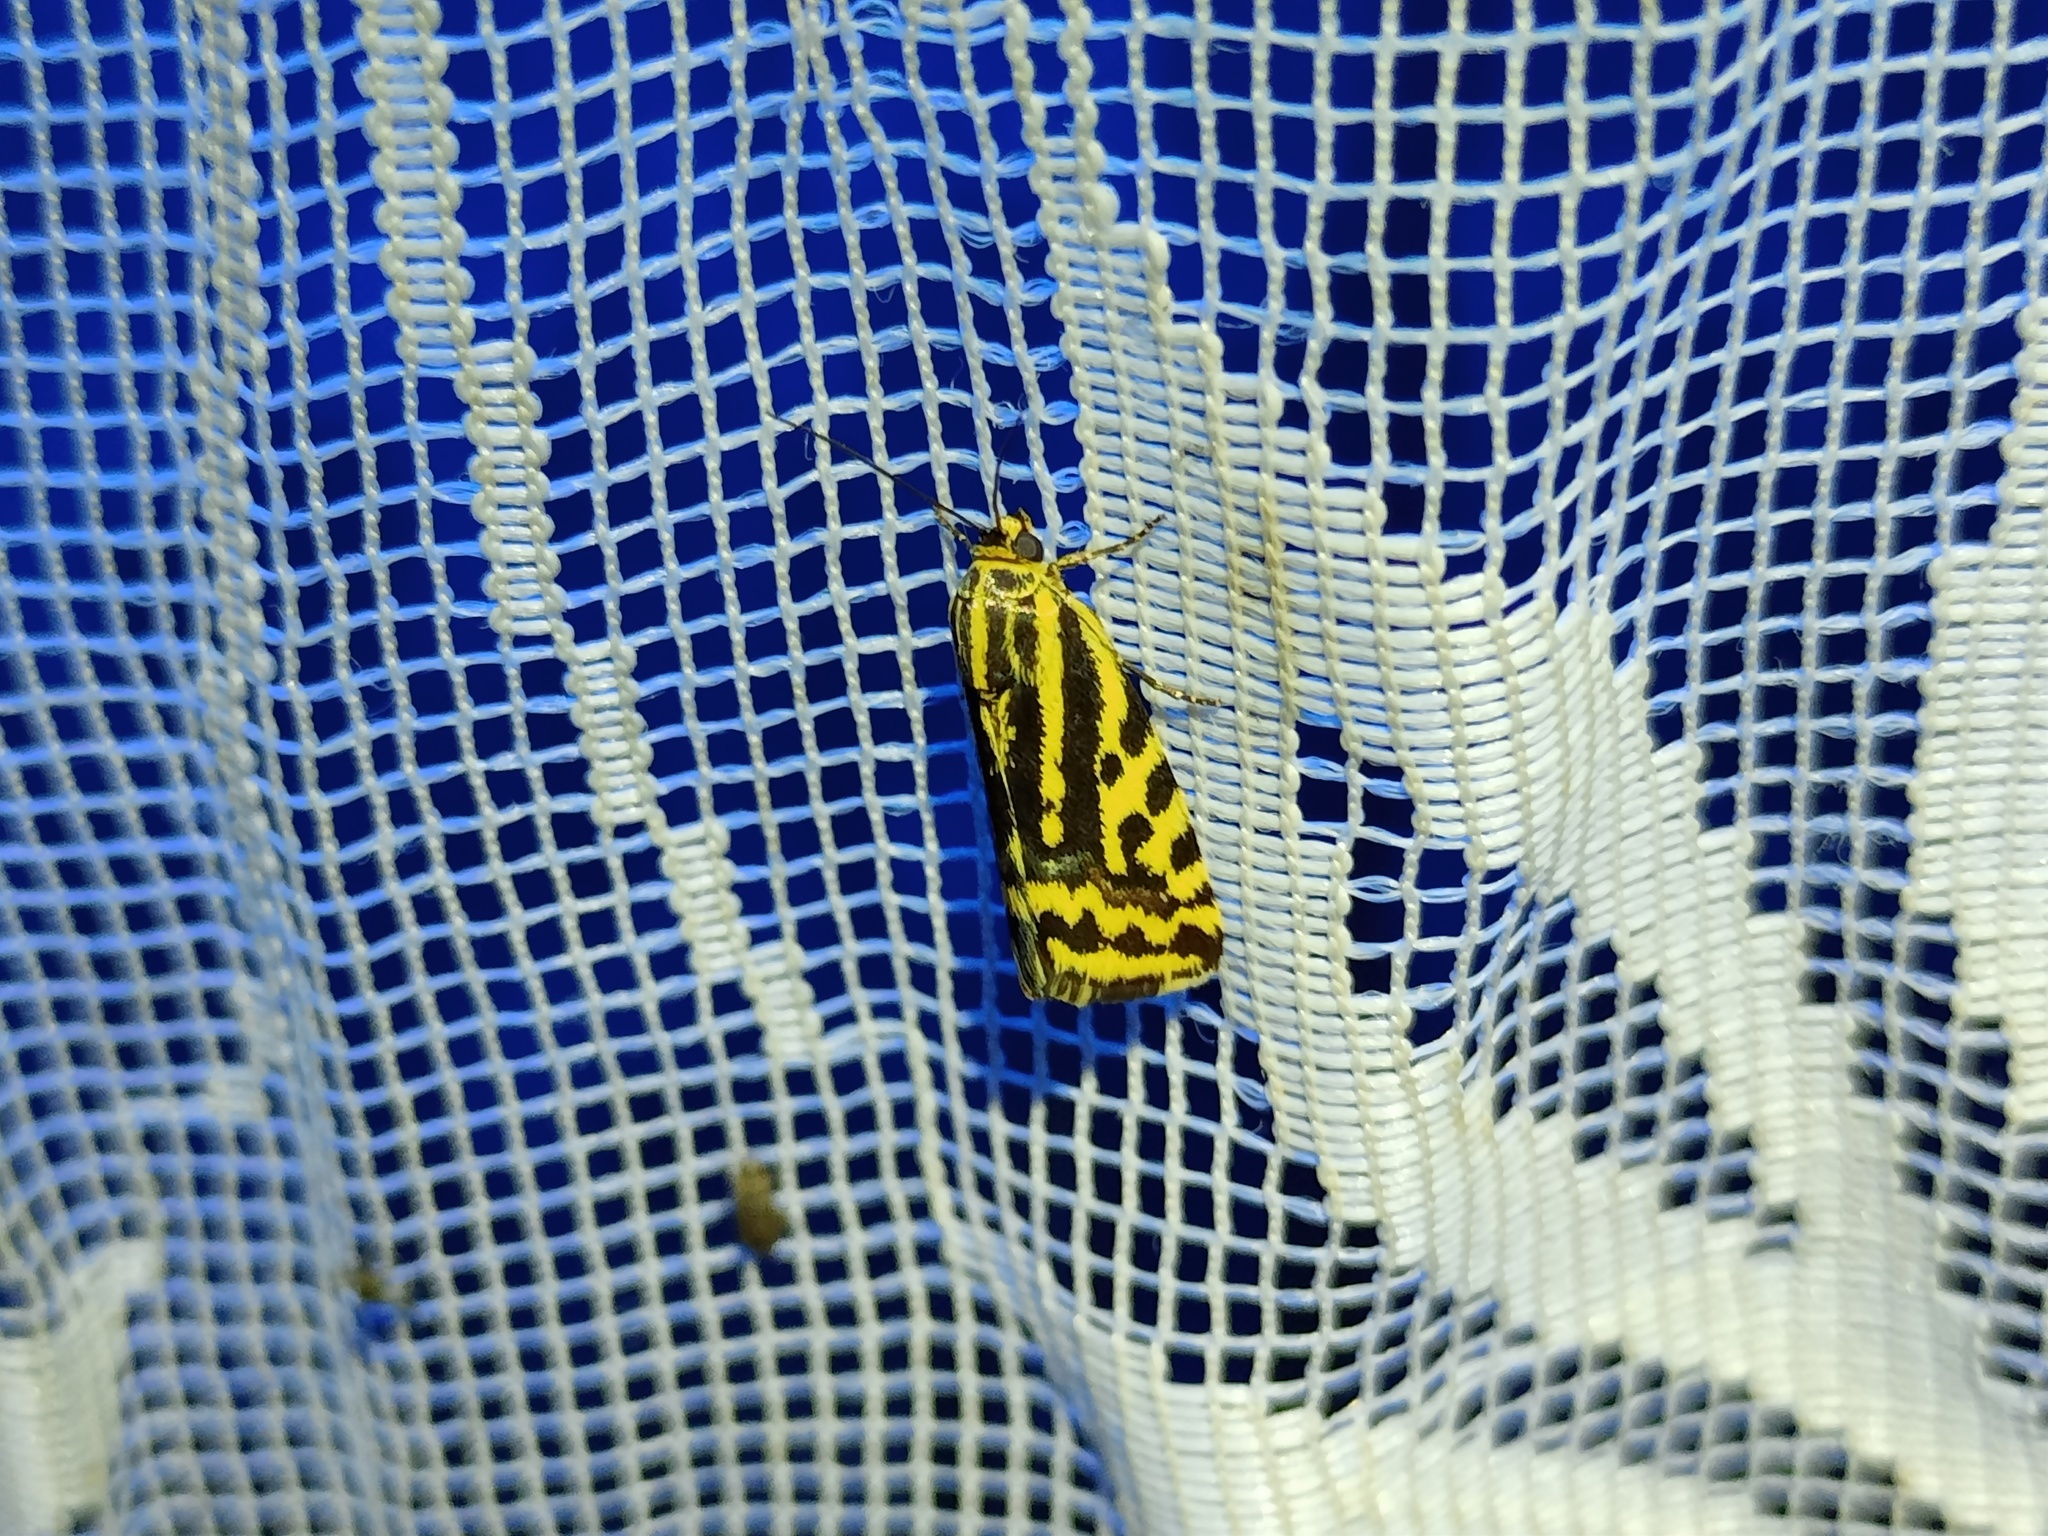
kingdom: Animalia
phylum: Arthropoda
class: Insecta
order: Lepidoptera
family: Noctuidae
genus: Acontia
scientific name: Acontia trabealis
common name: Spotted sulphur
